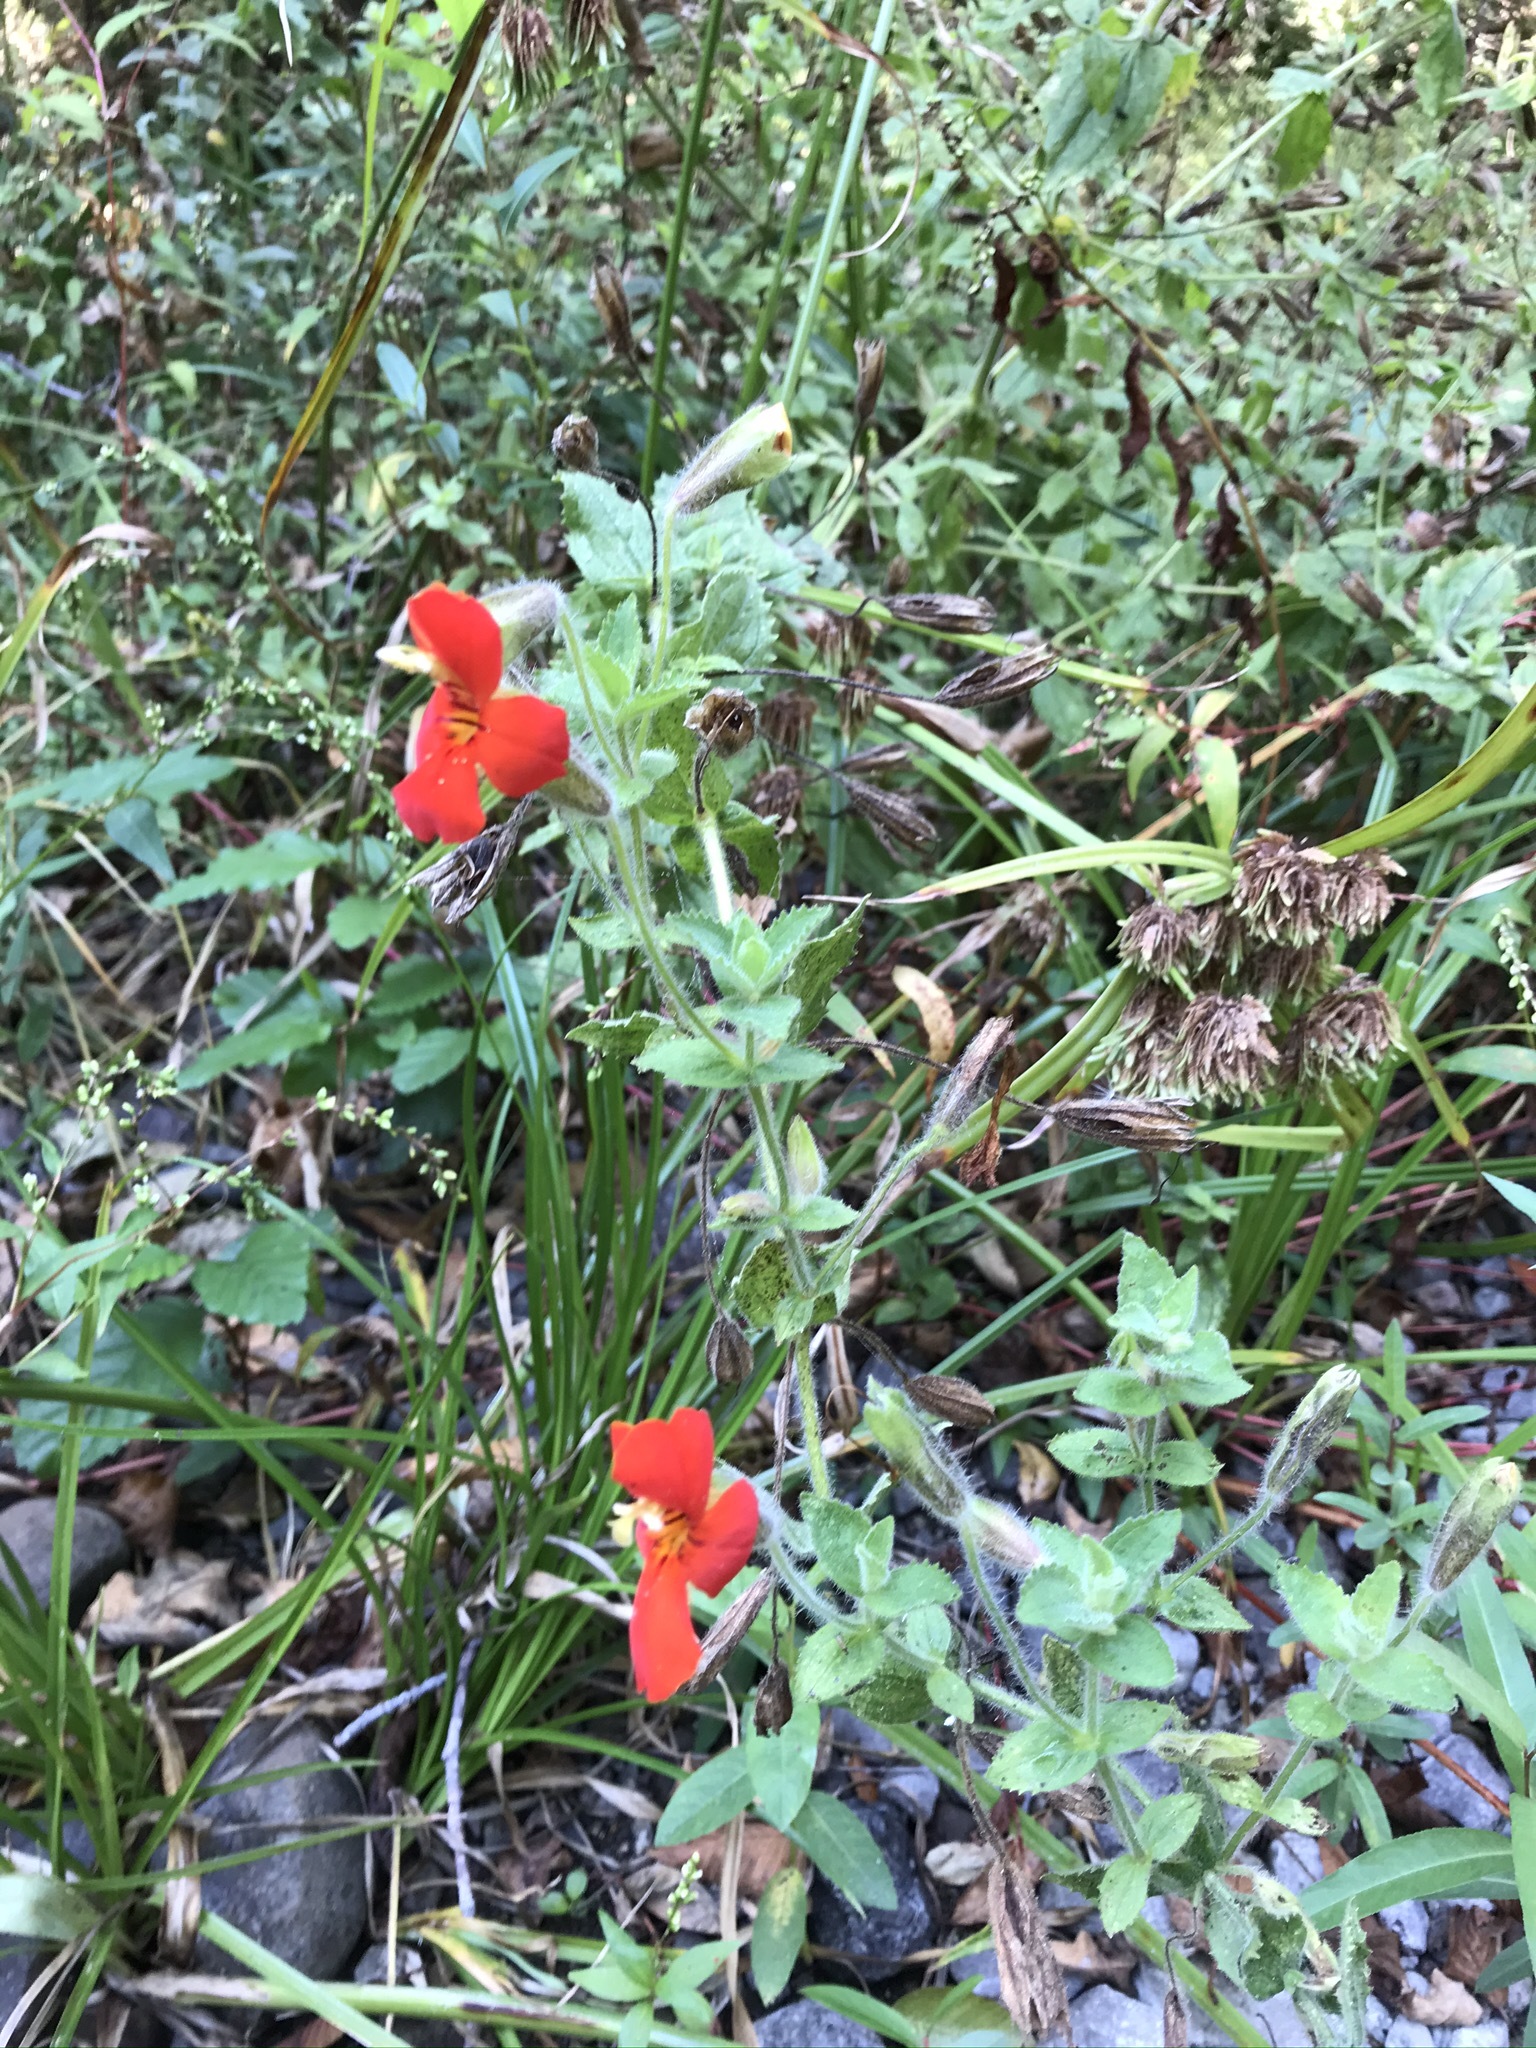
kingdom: Plantae
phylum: Tracheophyta
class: Magnoliopsida
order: Lamiales
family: Phrymaceae
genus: Erythranthe
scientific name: Erythranthe cardinalis
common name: Scarlet monkey-flower
